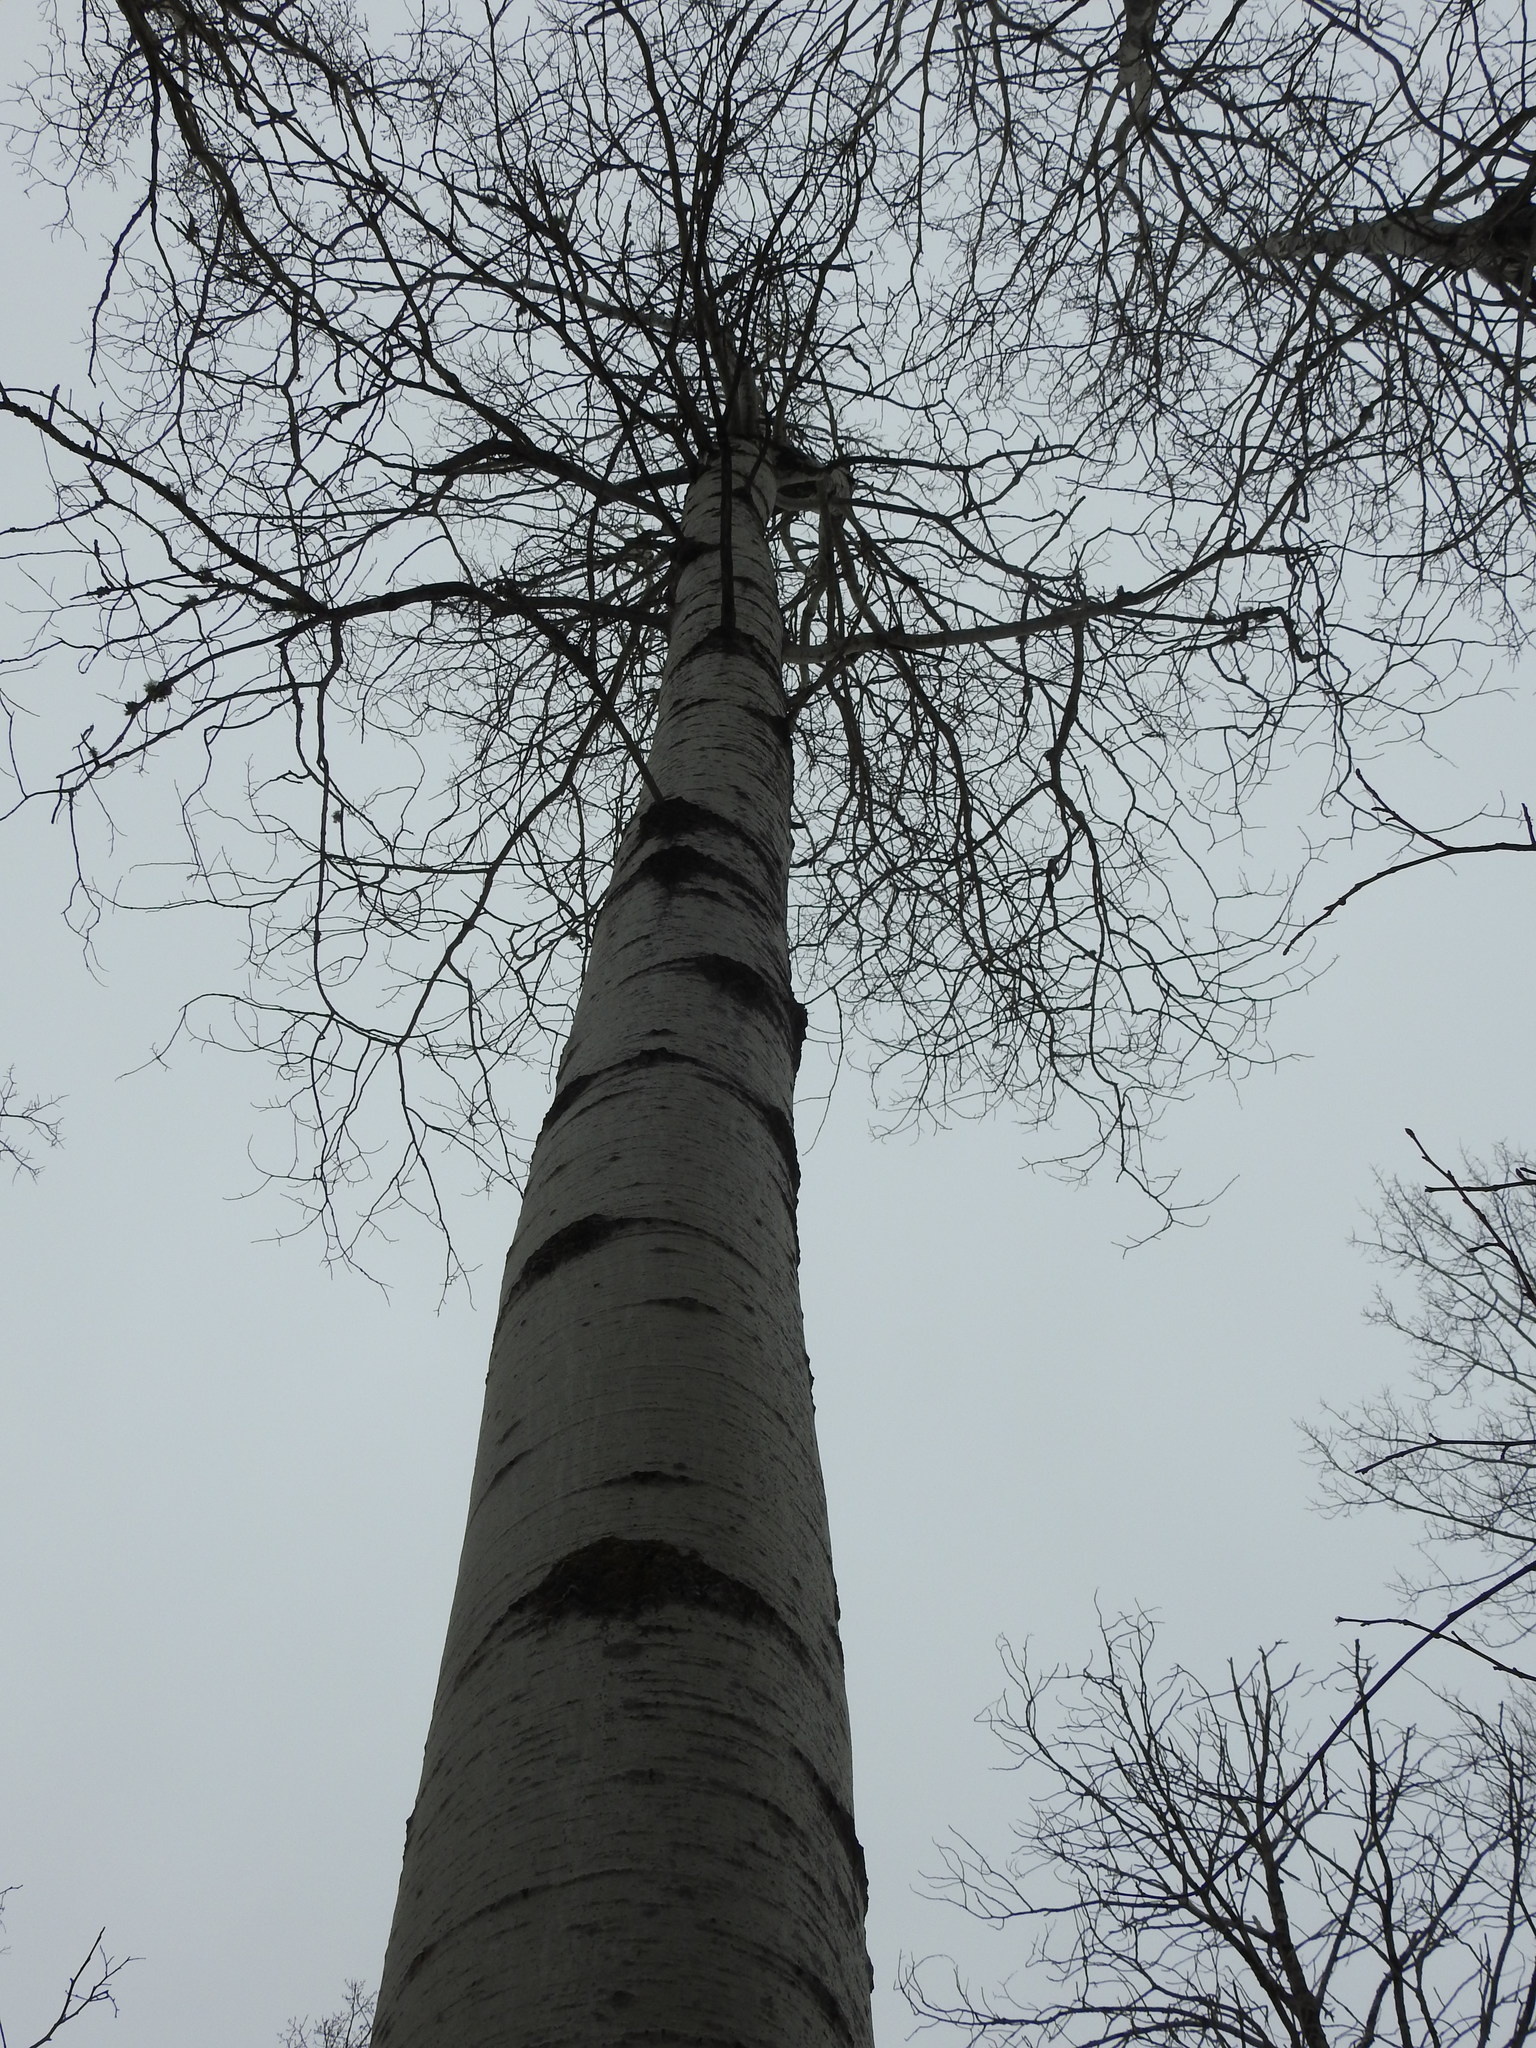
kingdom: Plantae
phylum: Tracheophyta
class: Magnoliopsida
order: Malpighiales
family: Salicaceae
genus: Populus
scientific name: Populus tremuloides
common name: Quaking aspen
